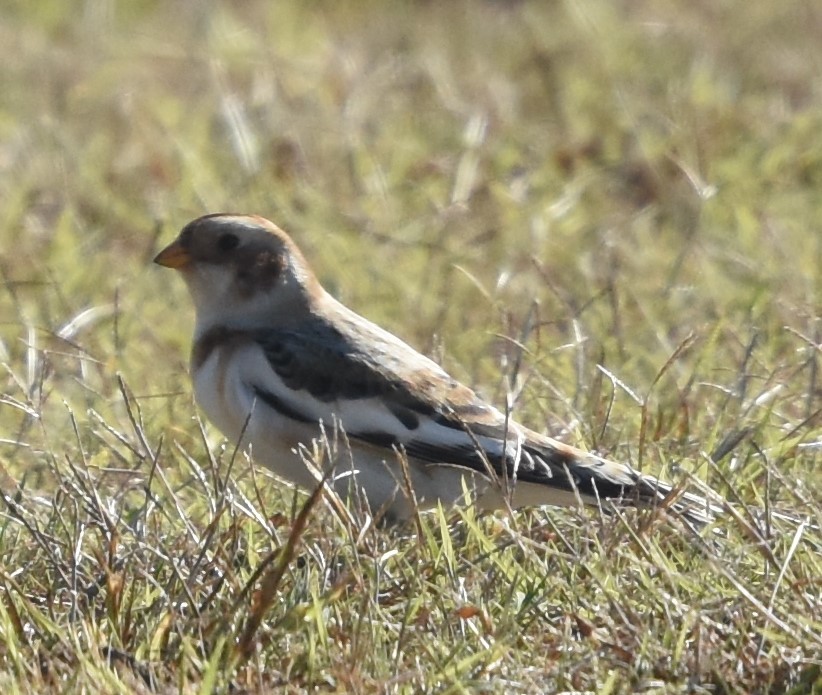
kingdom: Animalia
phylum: Chordata
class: Aves
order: Passeriformes
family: Calcariidae
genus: Plectrophenax
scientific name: Plectrophenax nivalis
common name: Snow bunting
